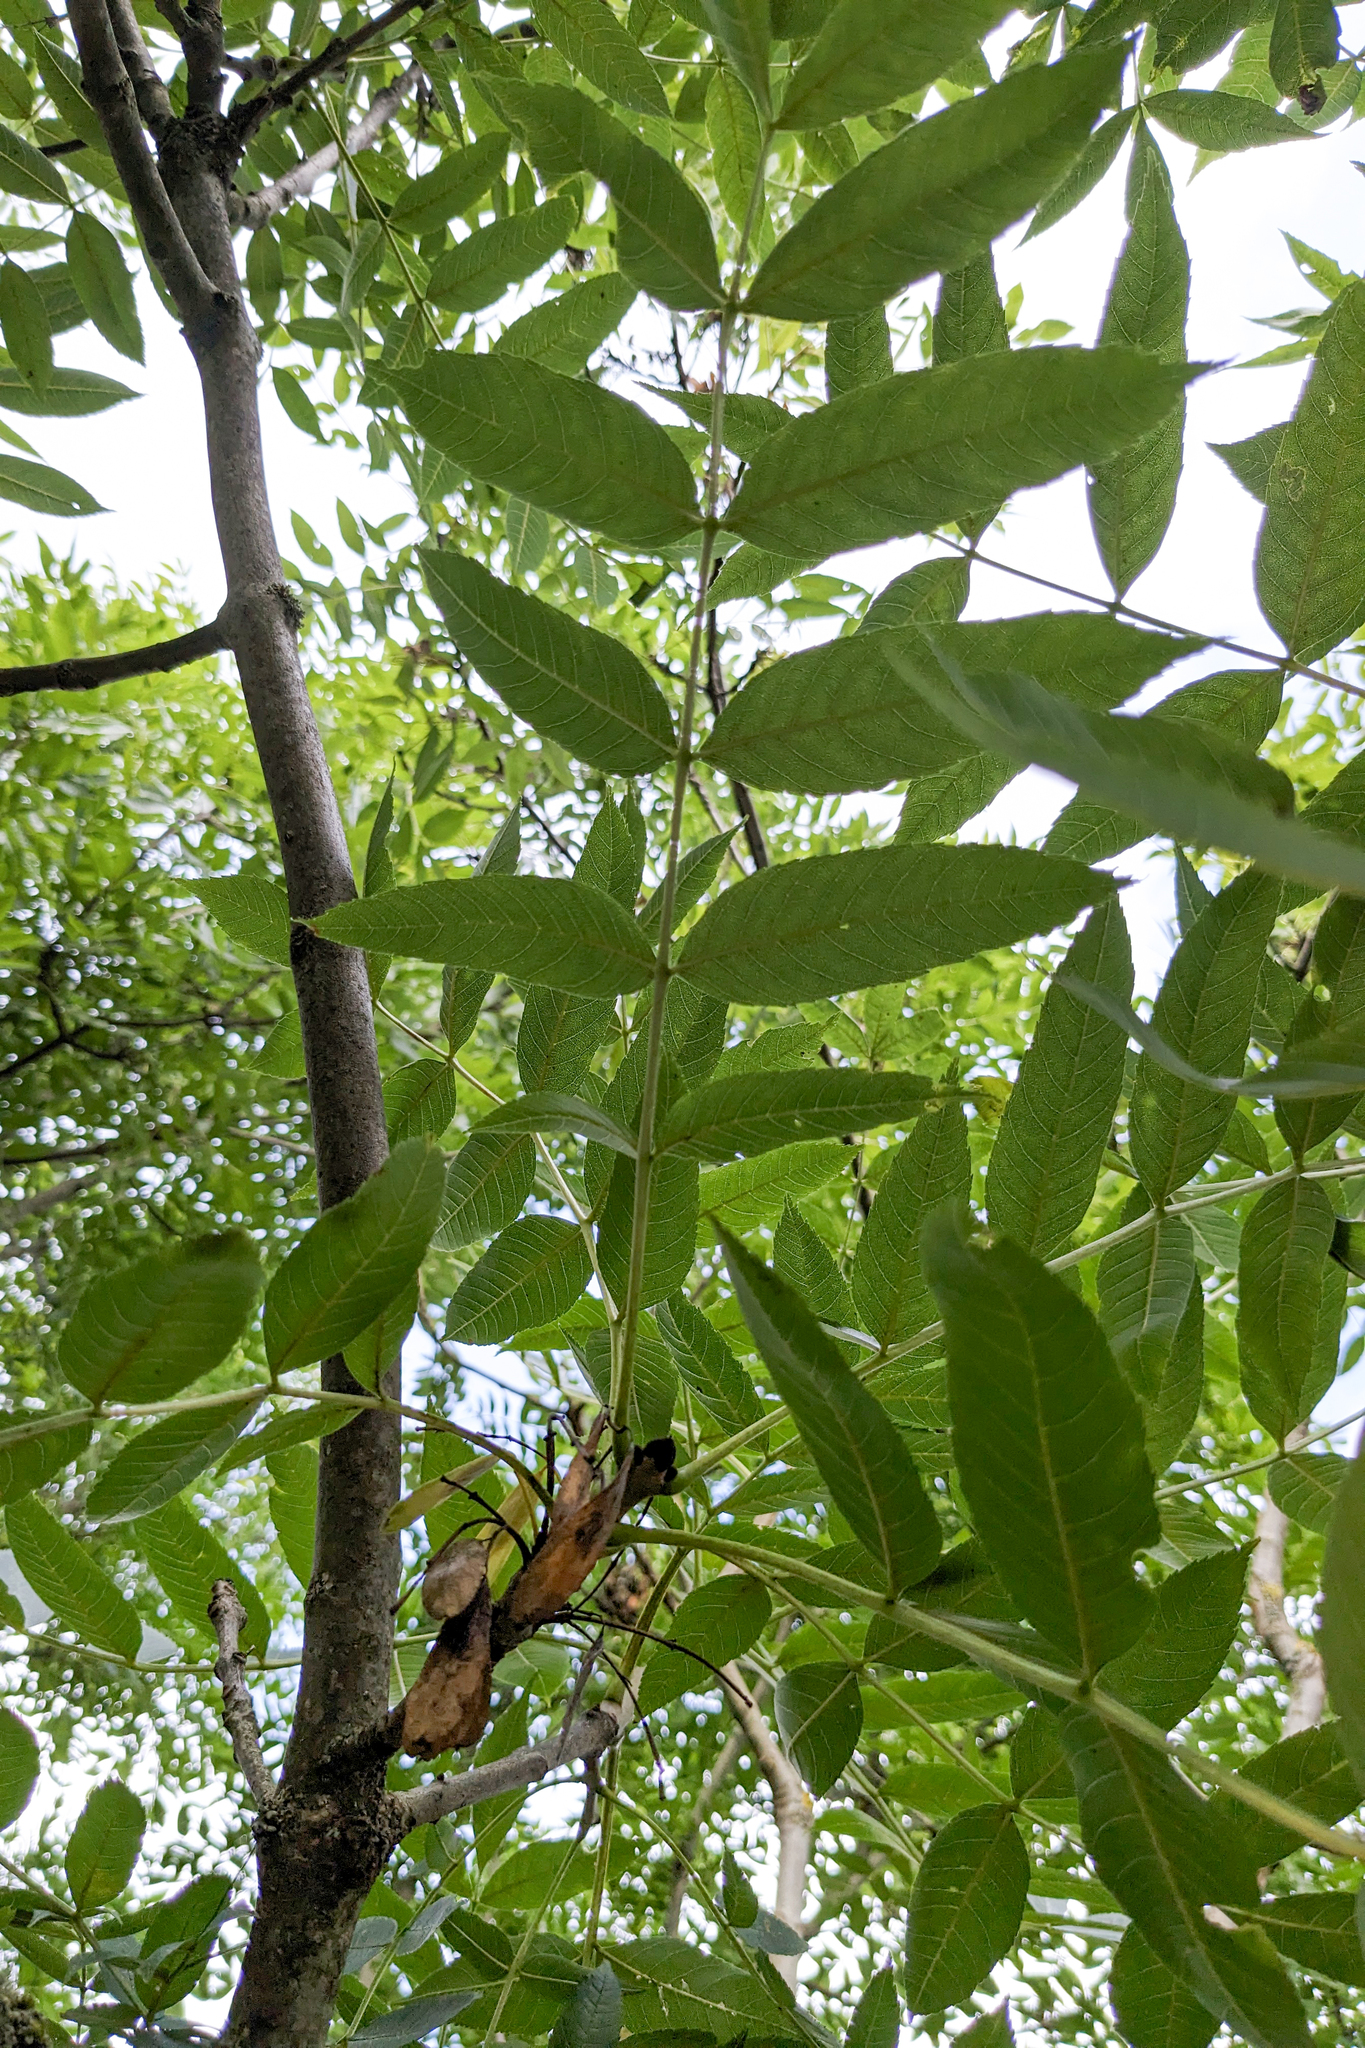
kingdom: Plantae
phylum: Tracheophyta
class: Magnoliopsida
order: Lamiales
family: Oleaceae
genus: Fraxinus
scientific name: Fraxinus excelsior
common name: European ash
